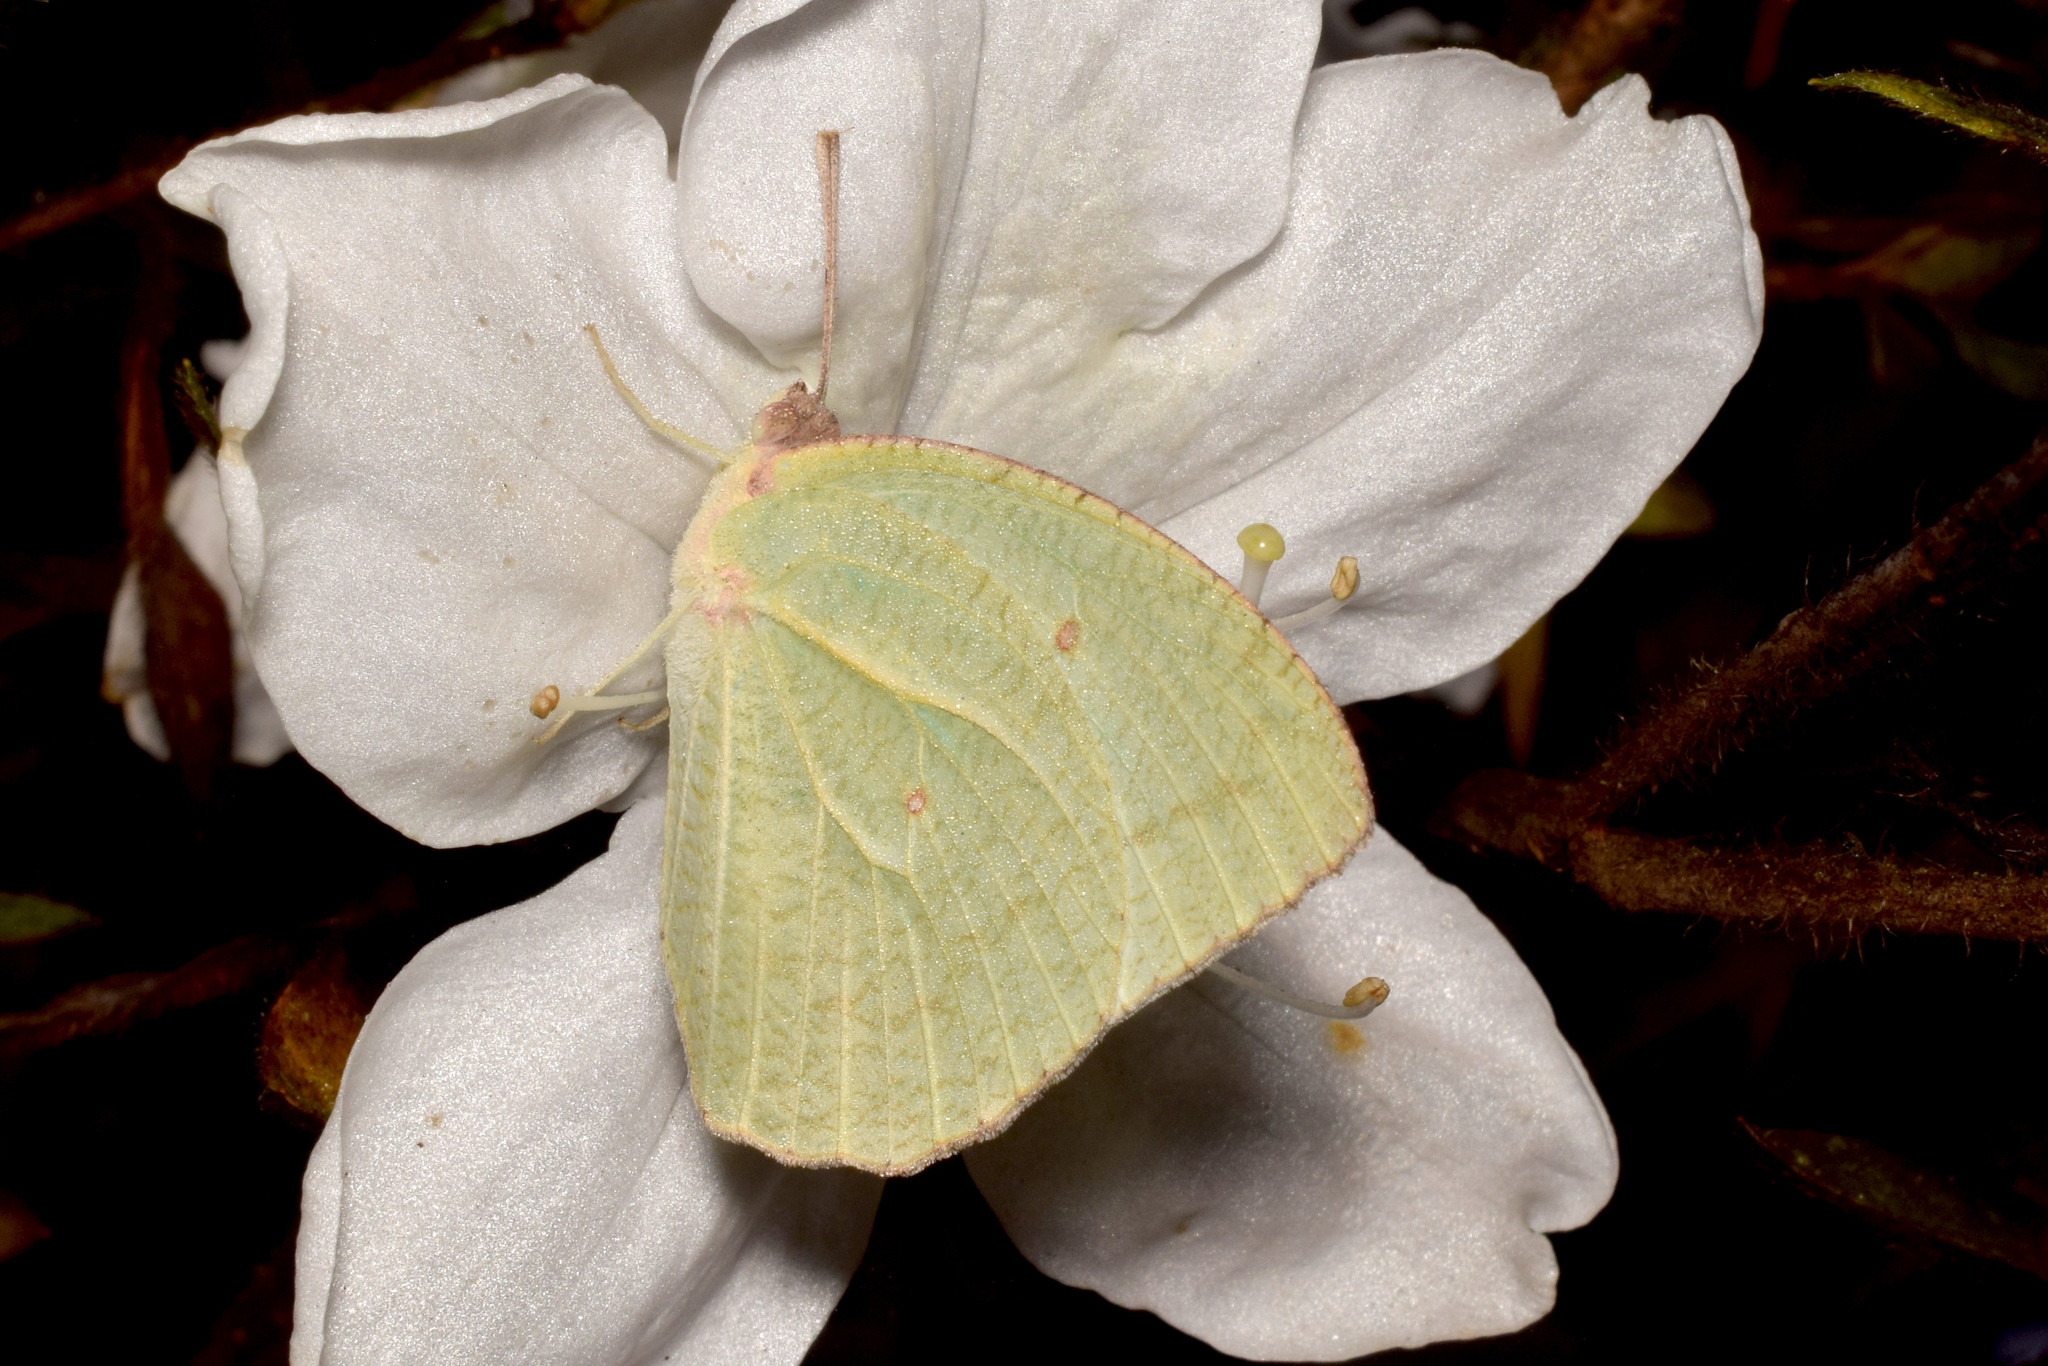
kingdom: Animalia
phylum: Arthropoda
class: Insecta
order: Lepidoptera
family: Pieridae
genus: Catopsilia
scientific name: Catopsilia pyranthe
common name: Mottled emigrant
